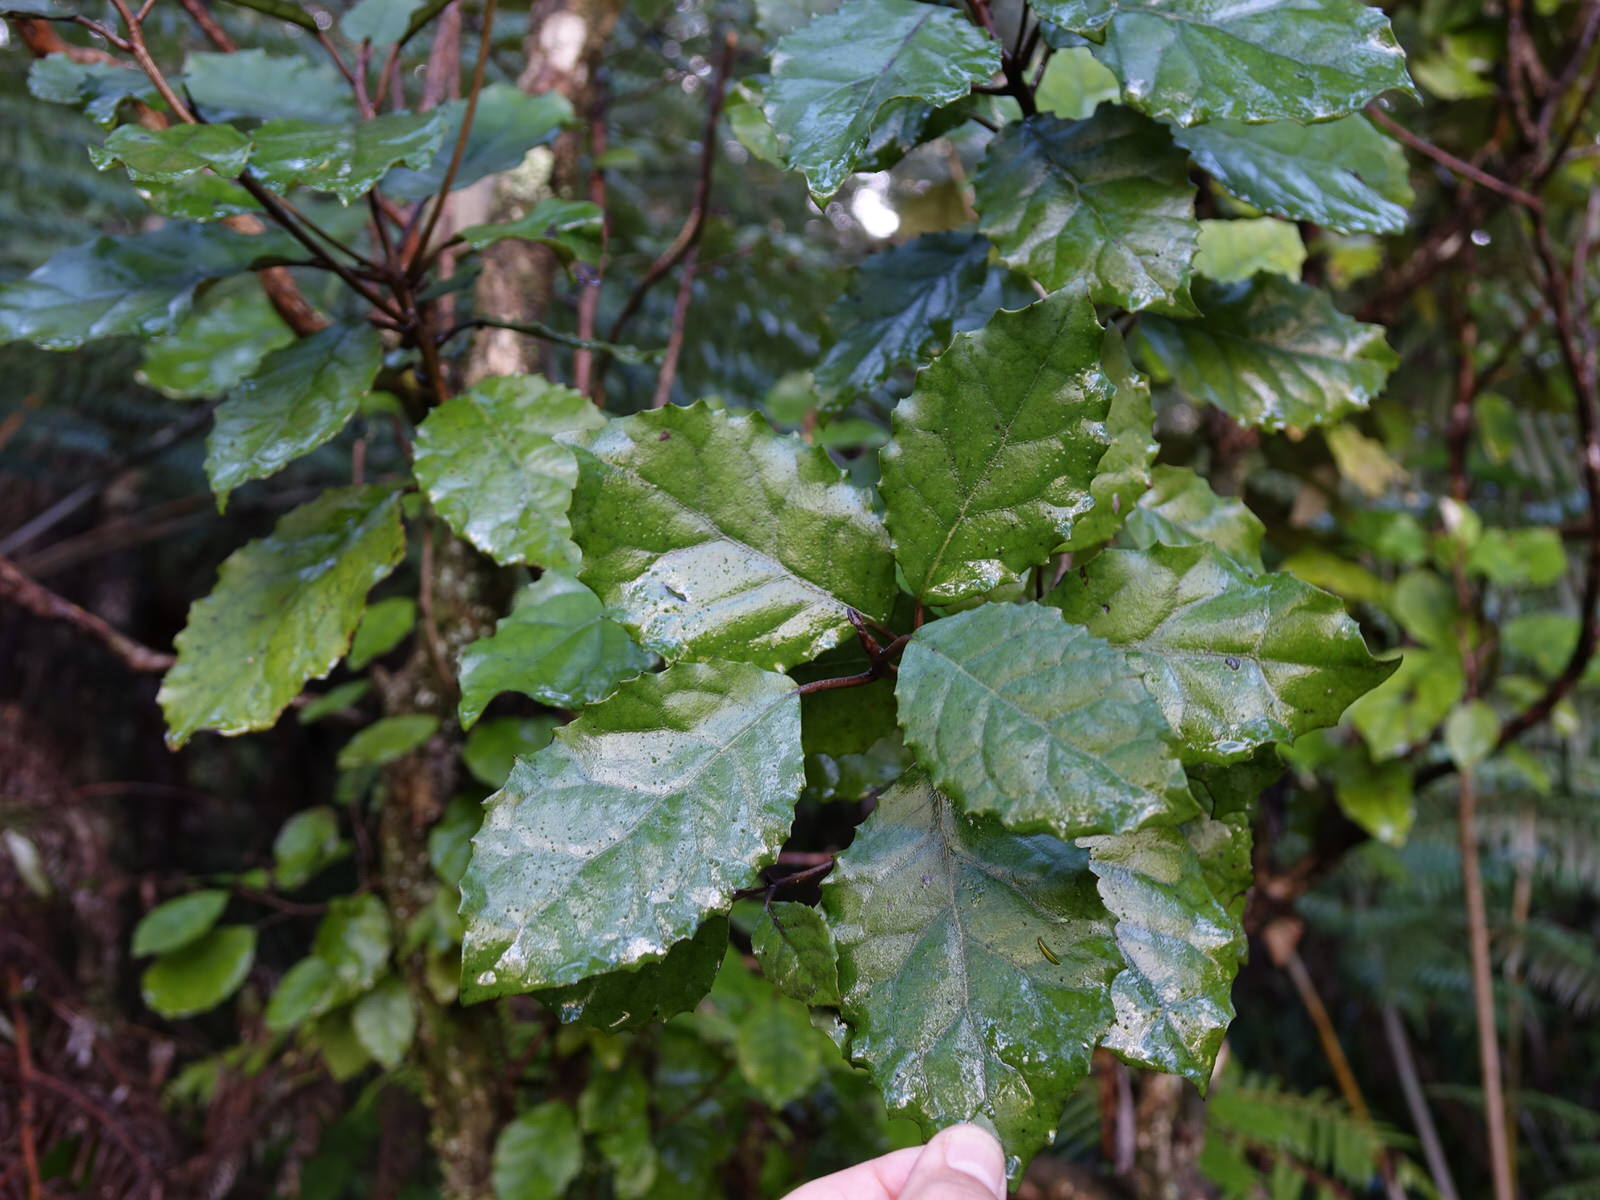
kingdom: Plantae
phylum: Tracheophyta
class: Magnoliopsida
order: Asterales
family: Asteraceae
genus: Olearia
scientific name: Olearia rani
